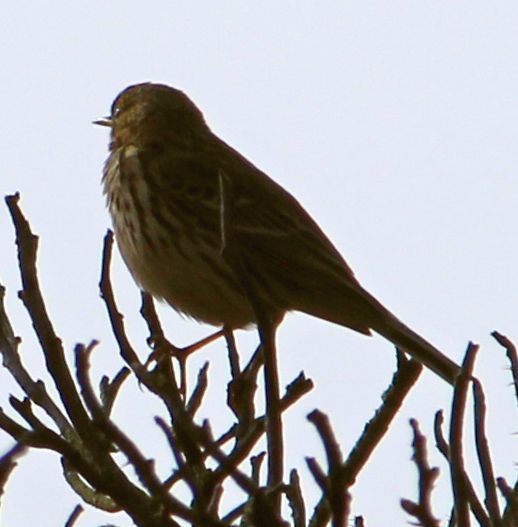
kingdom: Animalia
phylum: Chordata
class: Aves
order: Passeriformes
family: Motacillidae
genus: Anthus
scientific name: Anthus pratensis
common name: Meadow pipit
